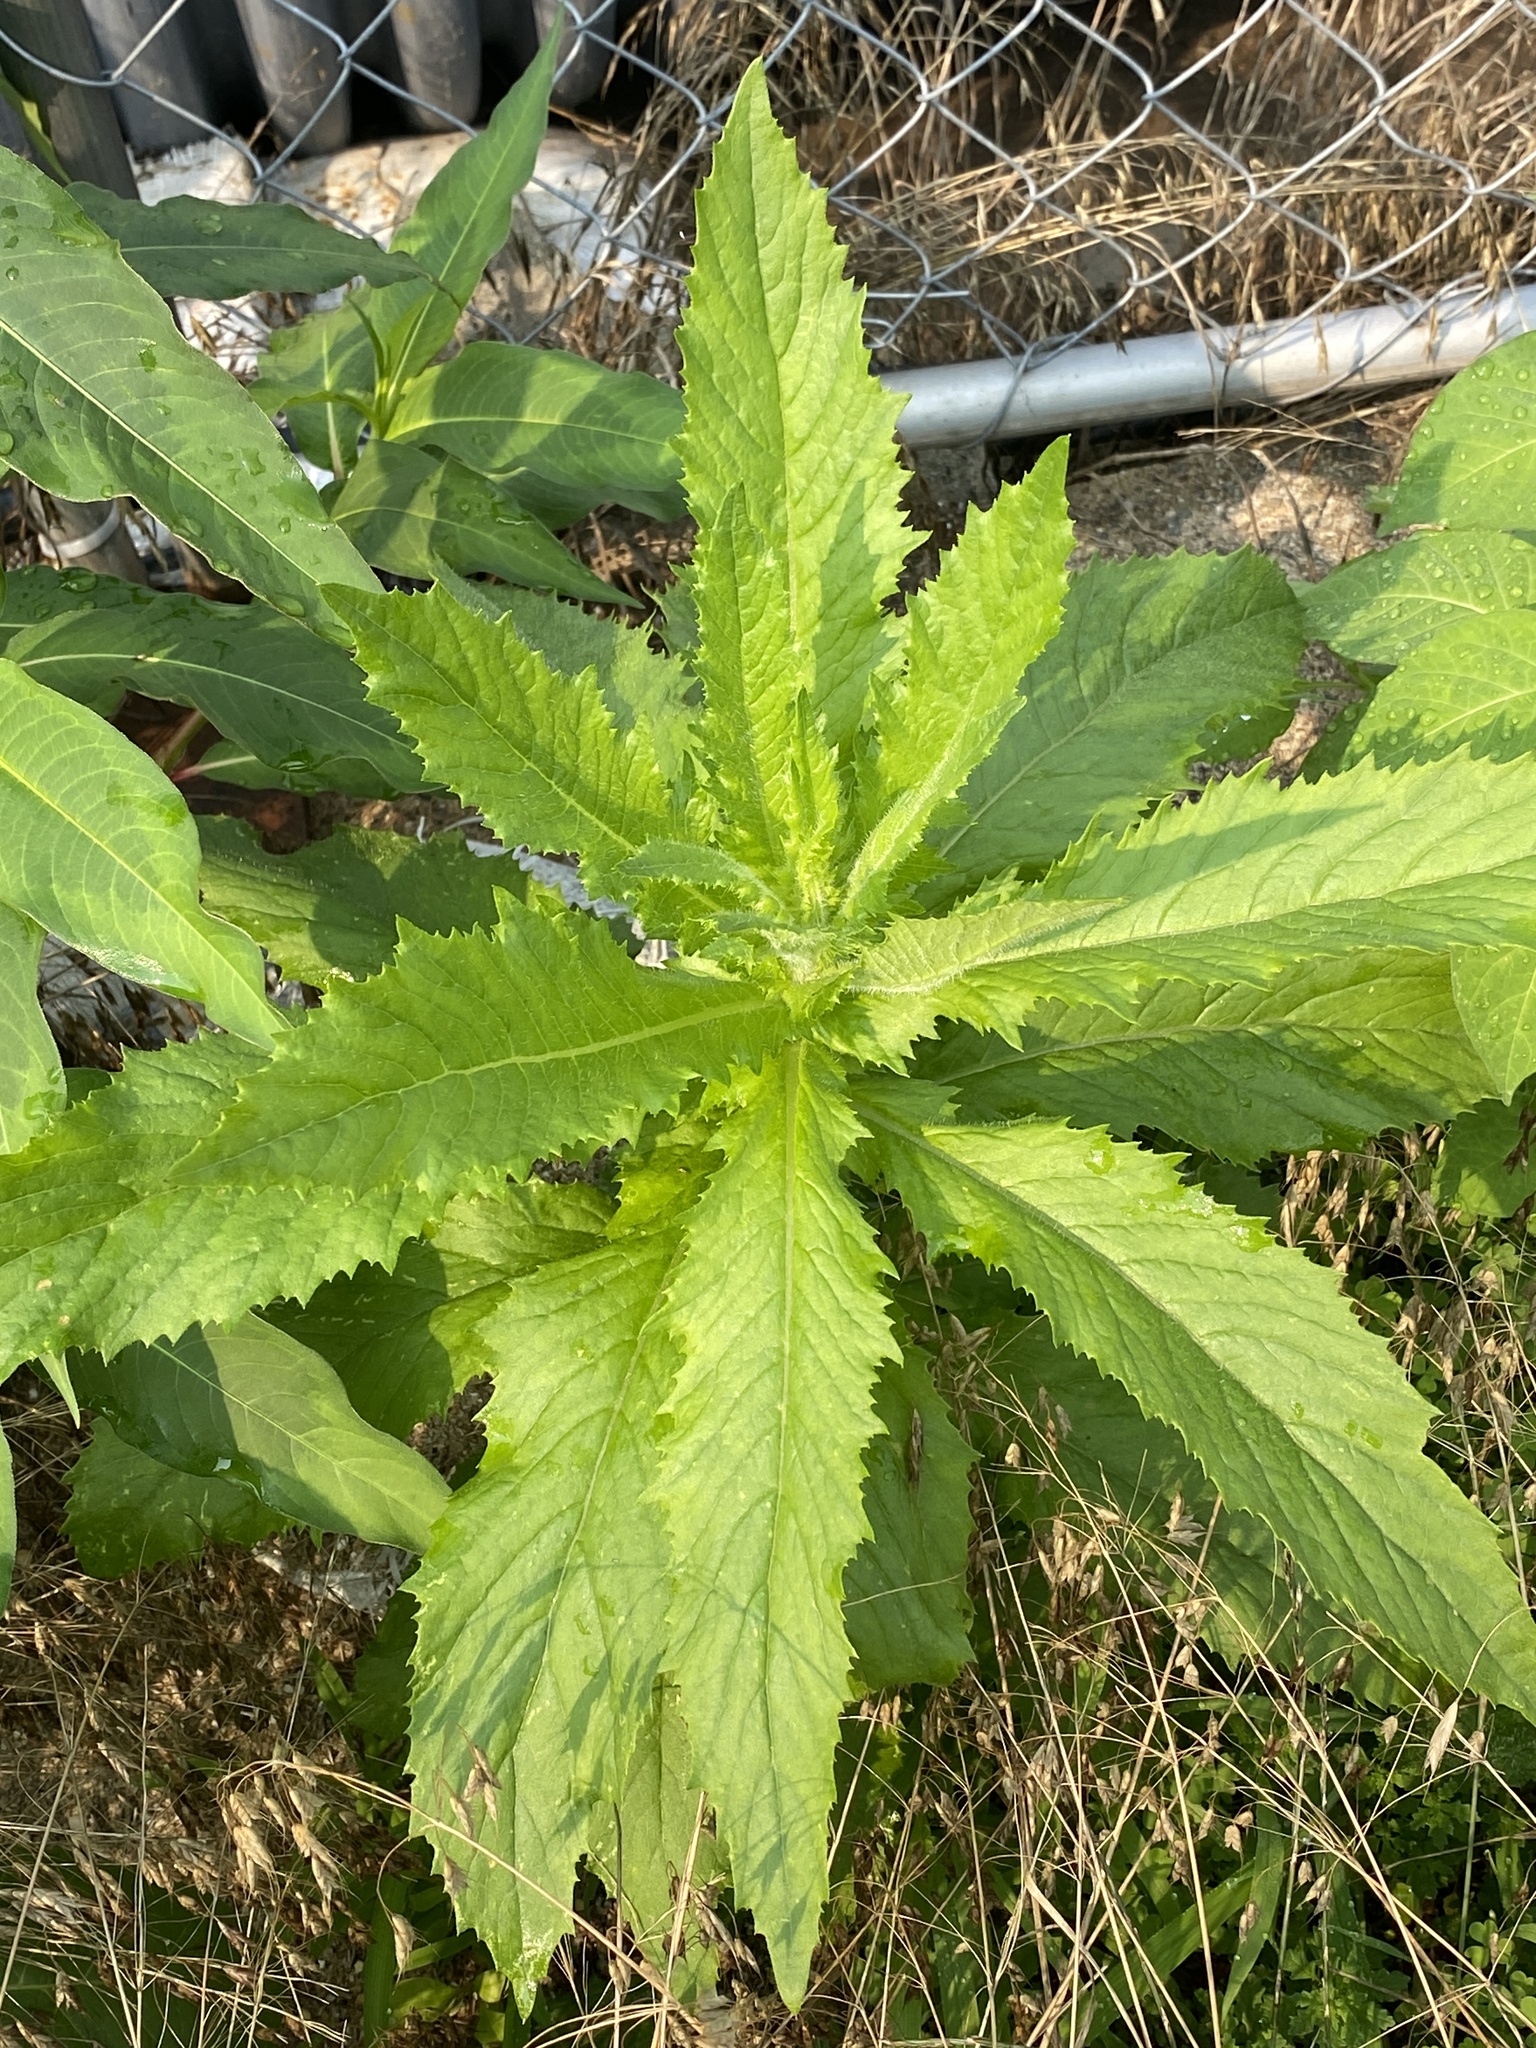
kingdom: Plantae
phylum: Tracheophyta
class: Magnoliopsida
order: Asterales
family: Asteraceae
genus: Erechtites
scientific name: Erechtites hieraciifolius
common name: American burnweed
